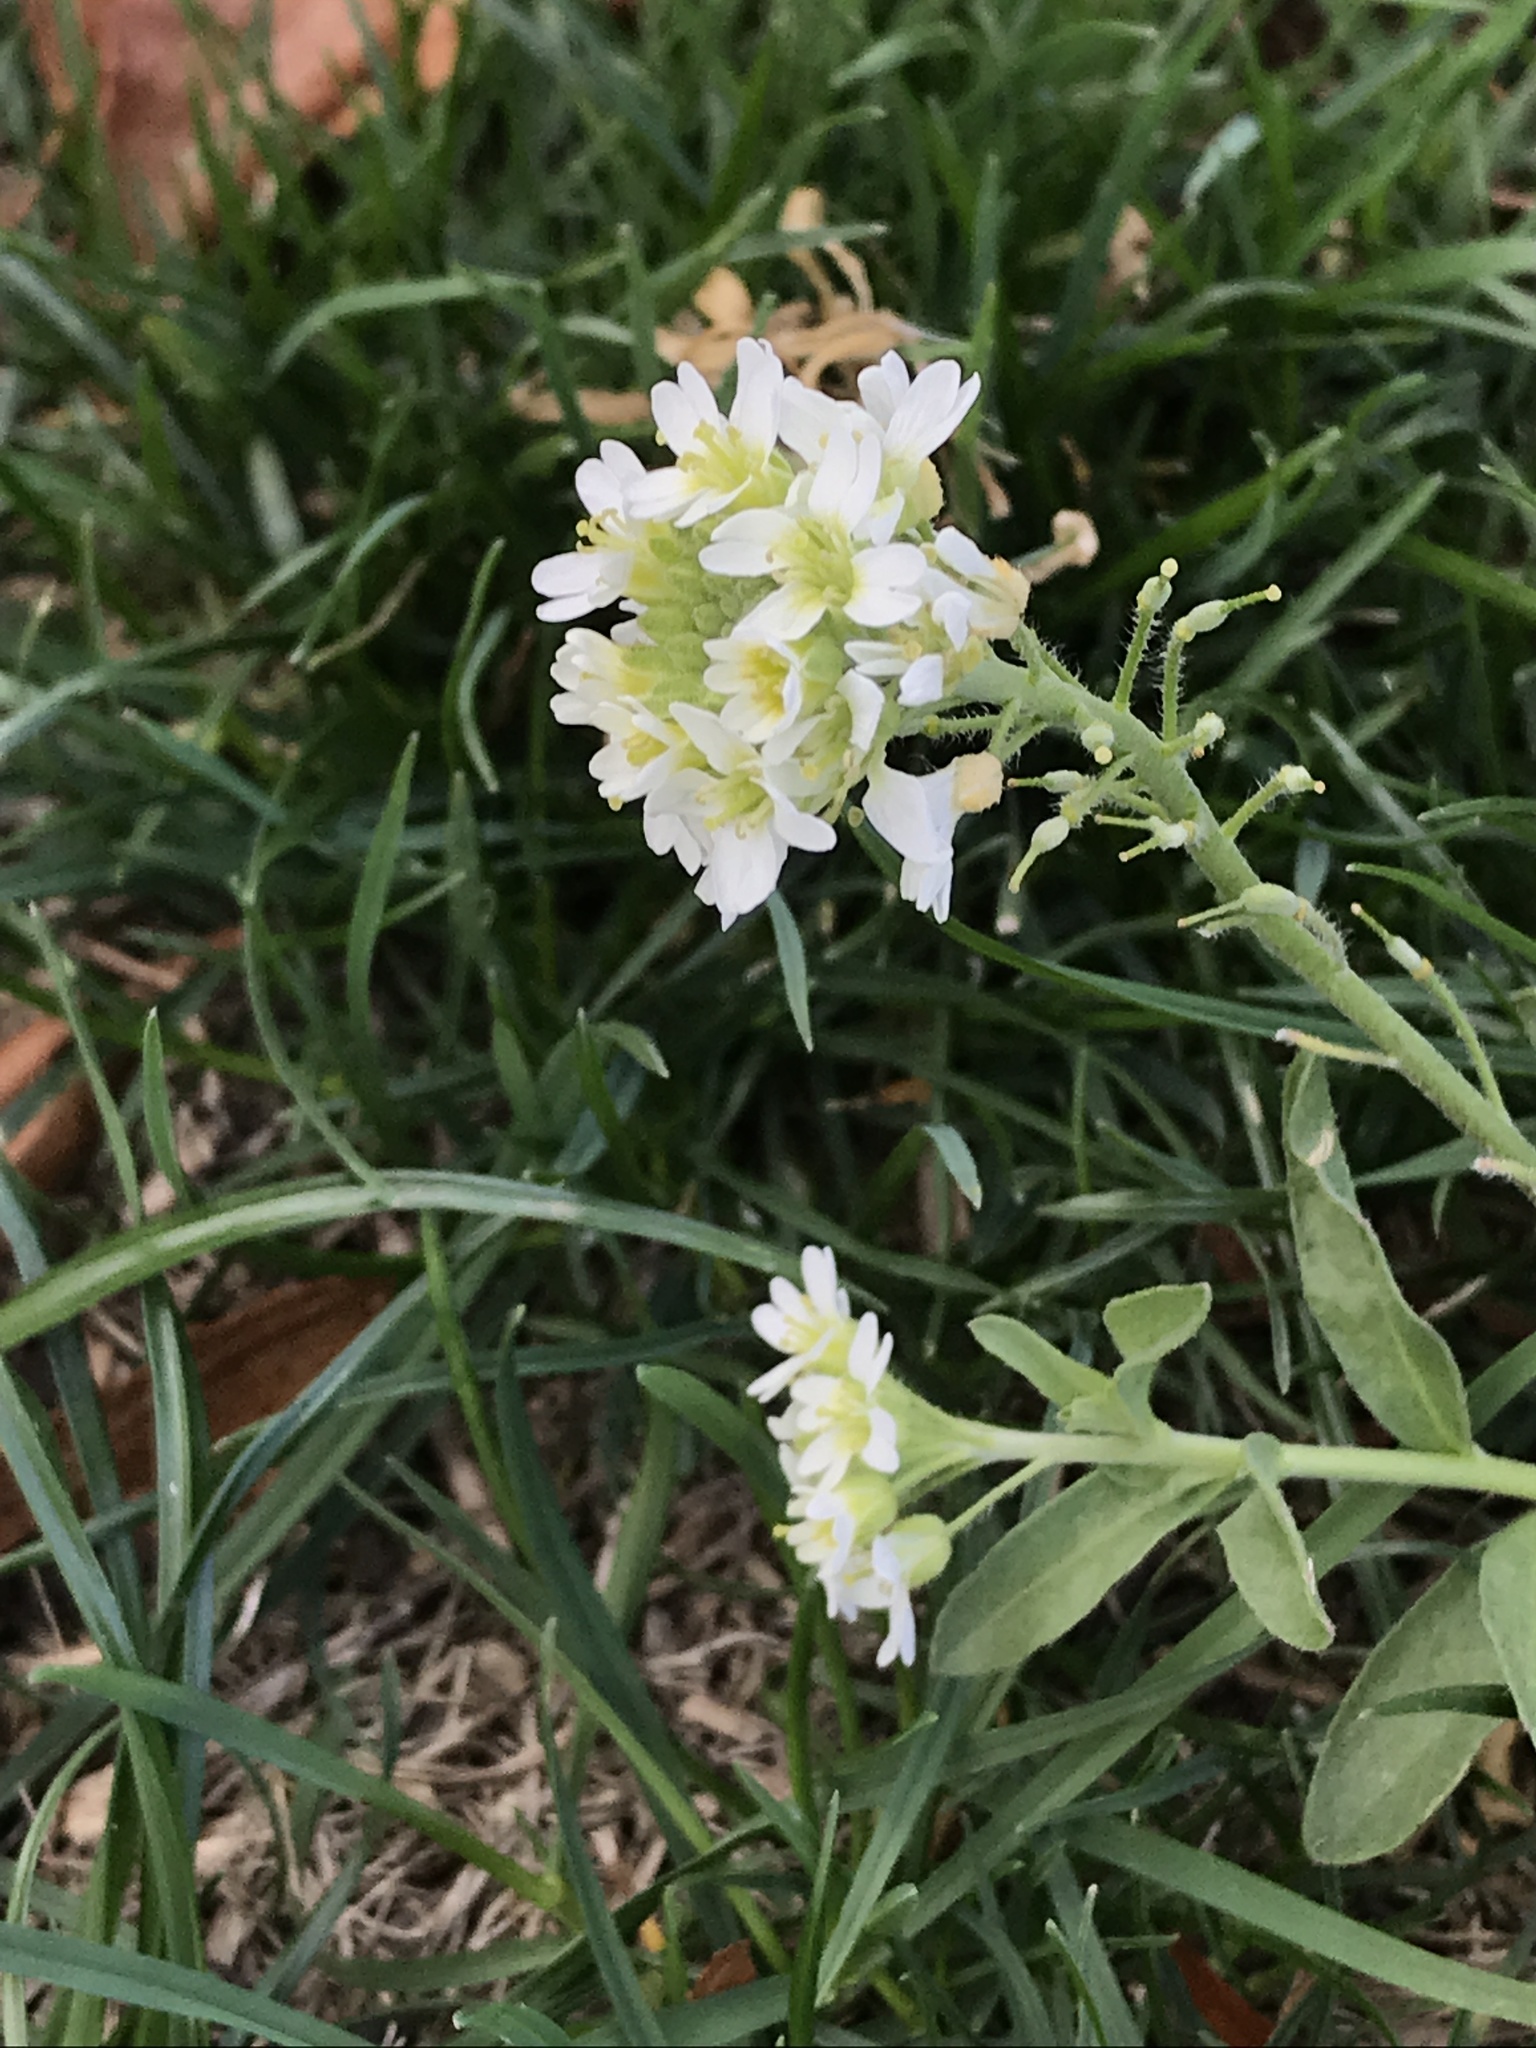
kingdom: Plantae
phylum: Tracheophyta
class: Magnoliopsida
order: Brassicales
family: Brassicaceae
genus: Berteroa
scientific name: Berteroa incana
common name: Hoary alison
